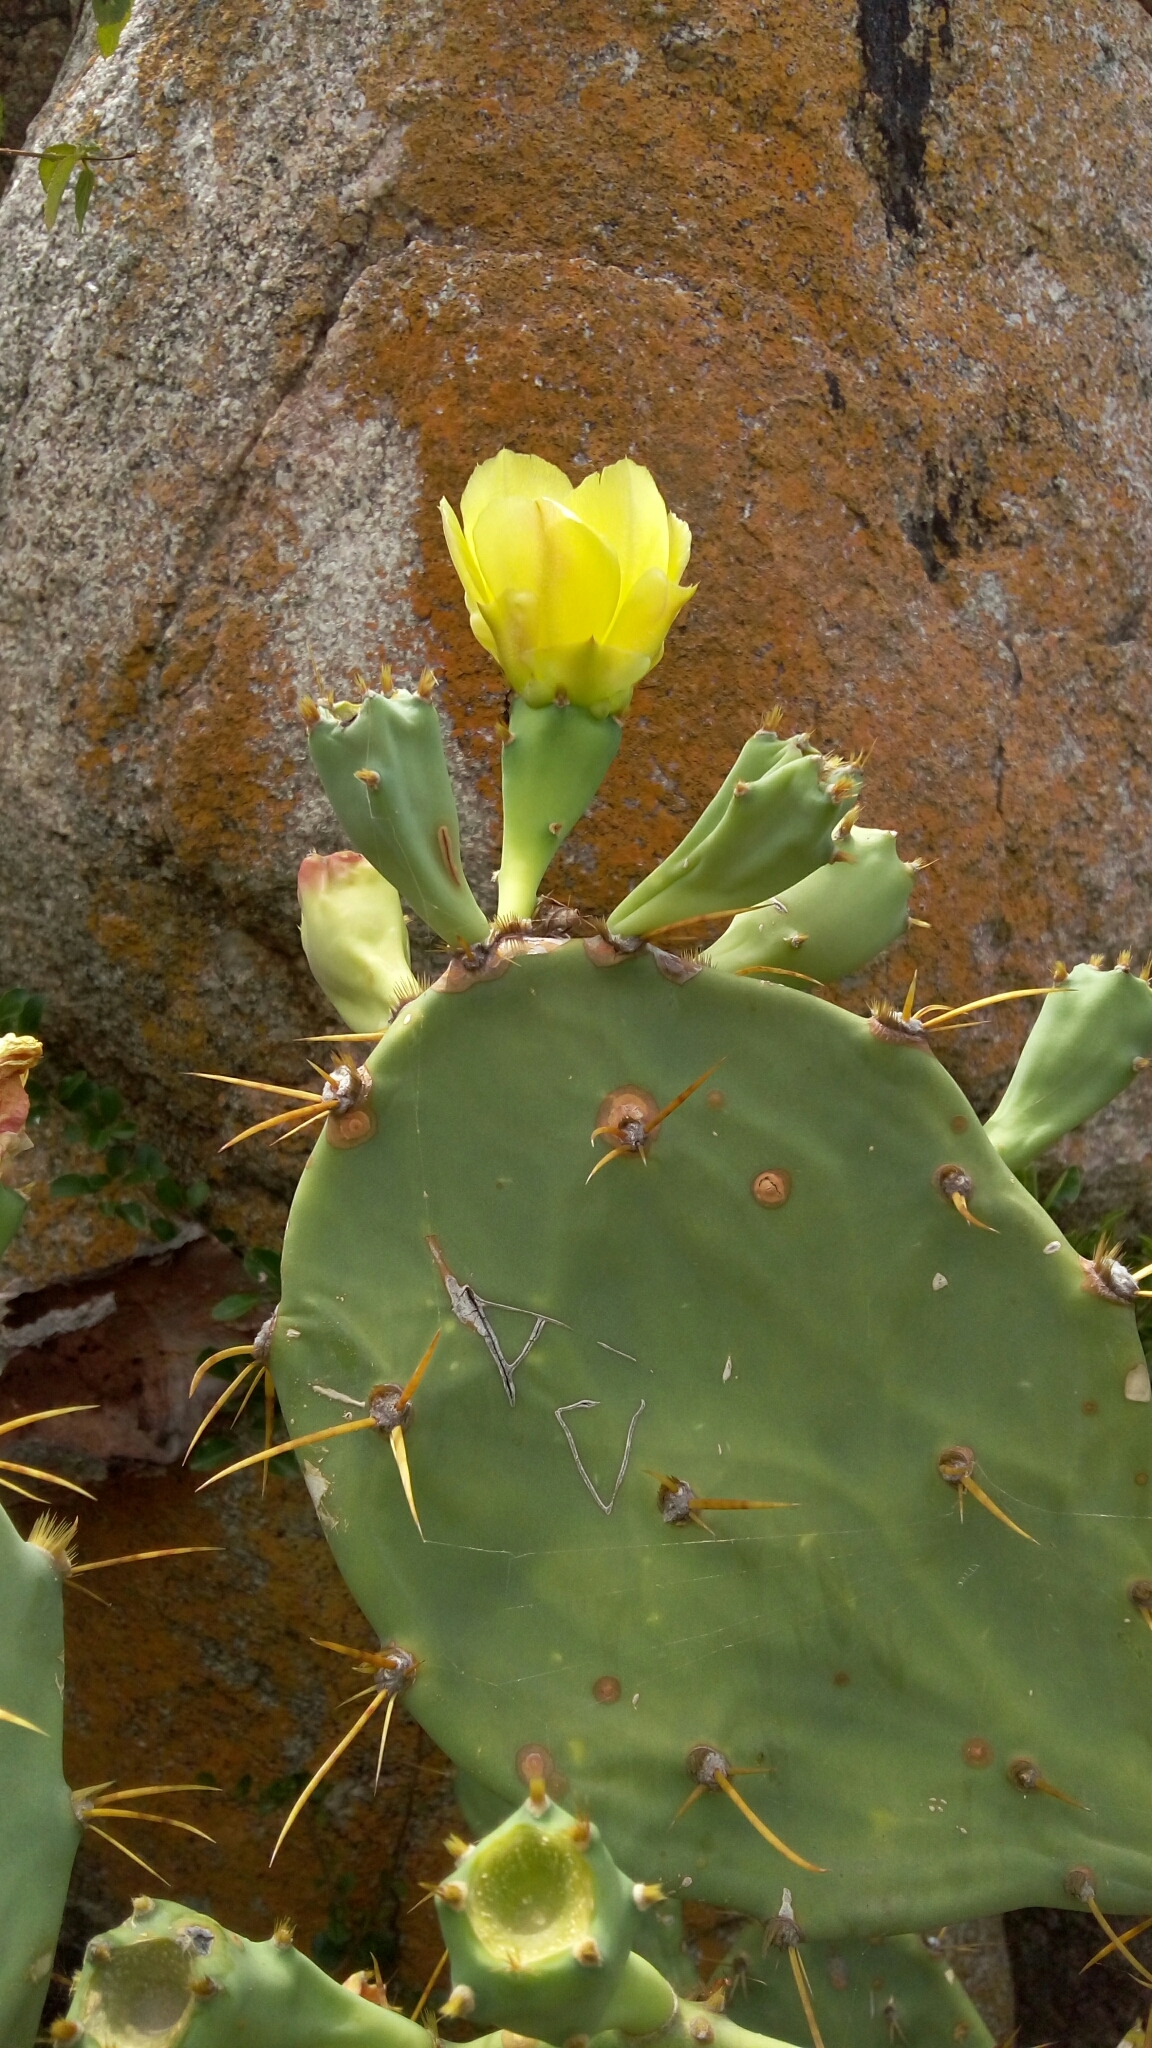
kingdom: Plantae
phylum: Tracheophyta
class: Magnoliopsida
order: Caryophyllales
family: Cactaceae
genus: Opuntia
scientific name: Opuntia stricta
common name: Erect pricklypear
